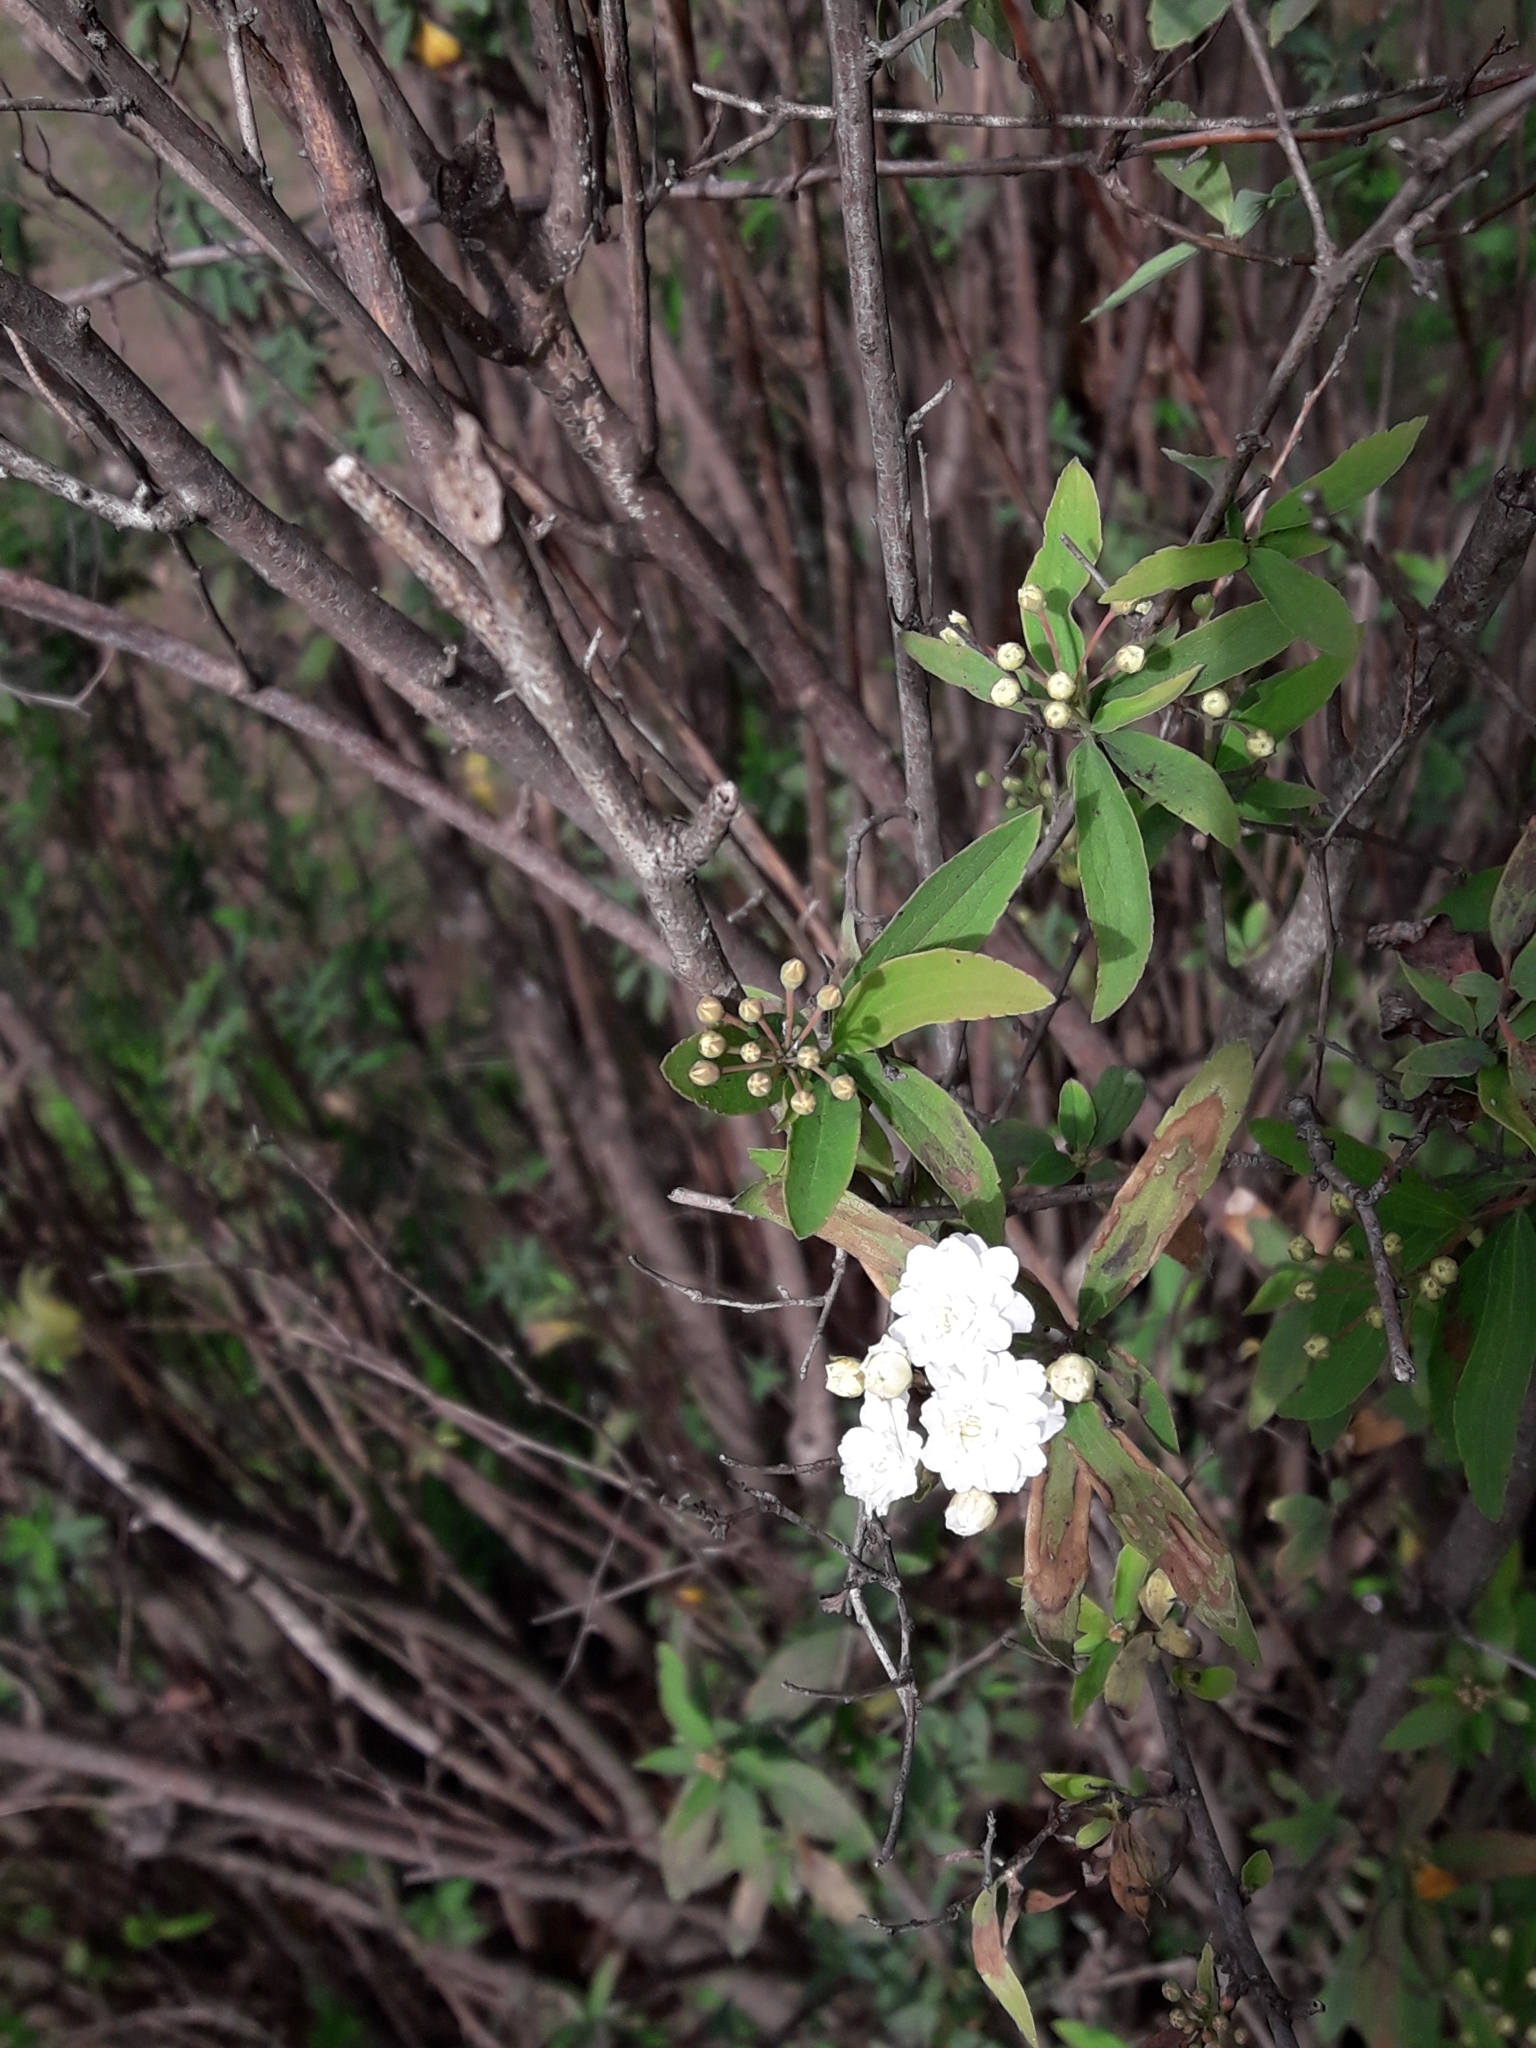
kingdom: Plantae
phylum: Tracheophyta
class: Magnoliopsida
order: Rosales
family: Rosaceae
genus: Spiraea
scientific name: Spiraea cantoniensis
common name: Reeves' meadowsweet
